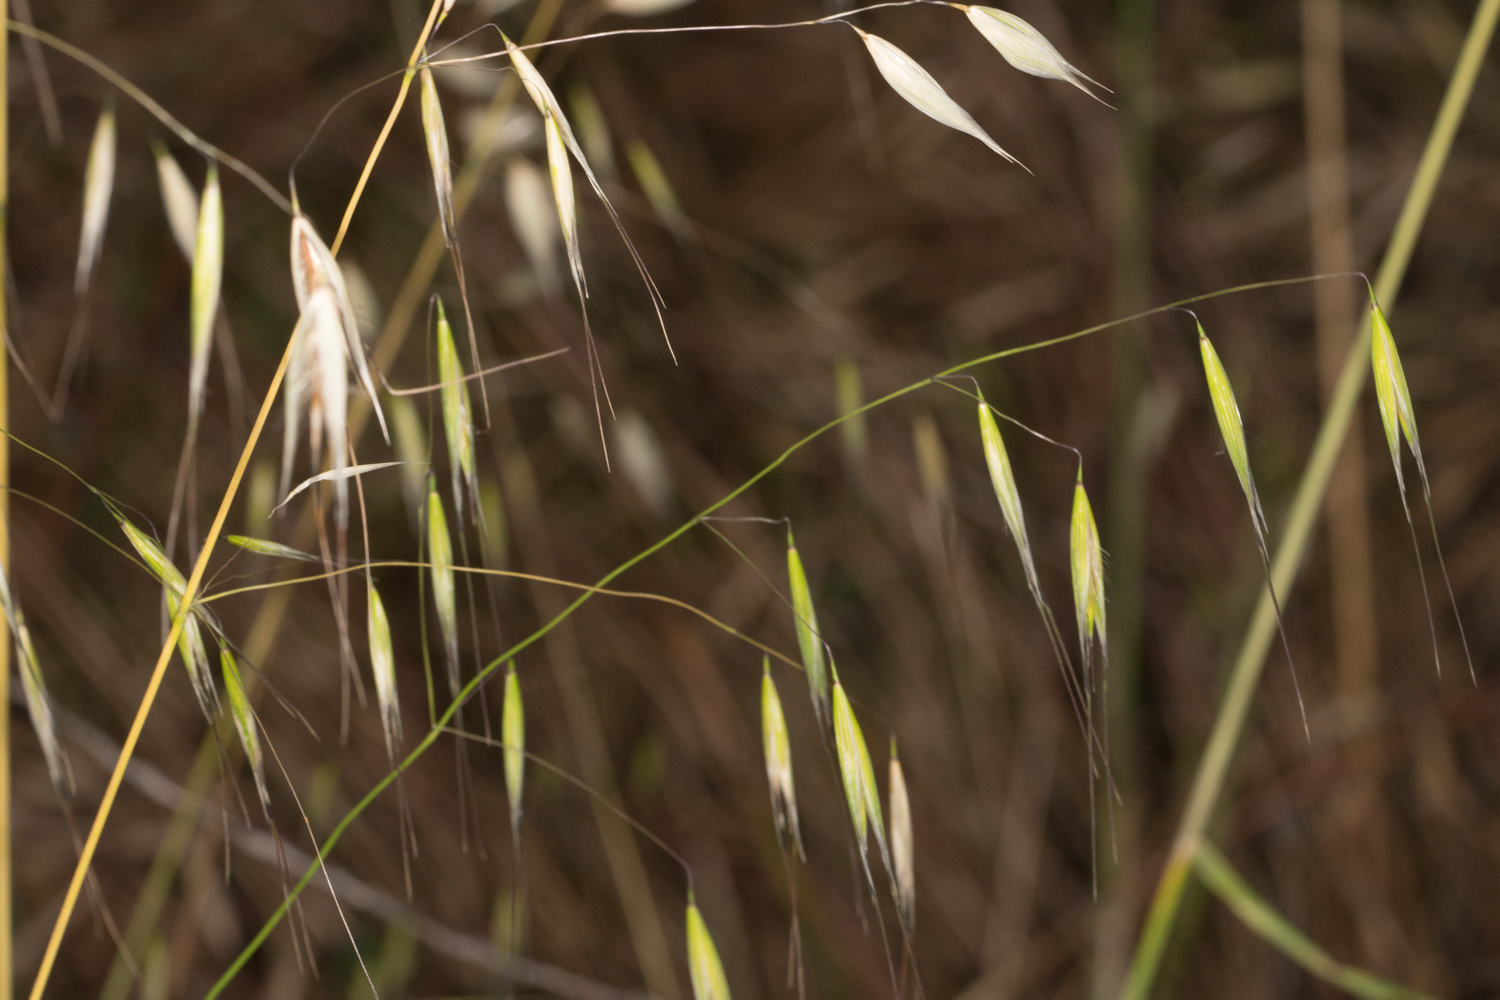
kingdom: Plantae
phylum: Tracheophyta
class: Liliopsida
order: Poales
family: Poaceae
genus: Avena
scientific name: Avena barbata
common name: Slender oat
